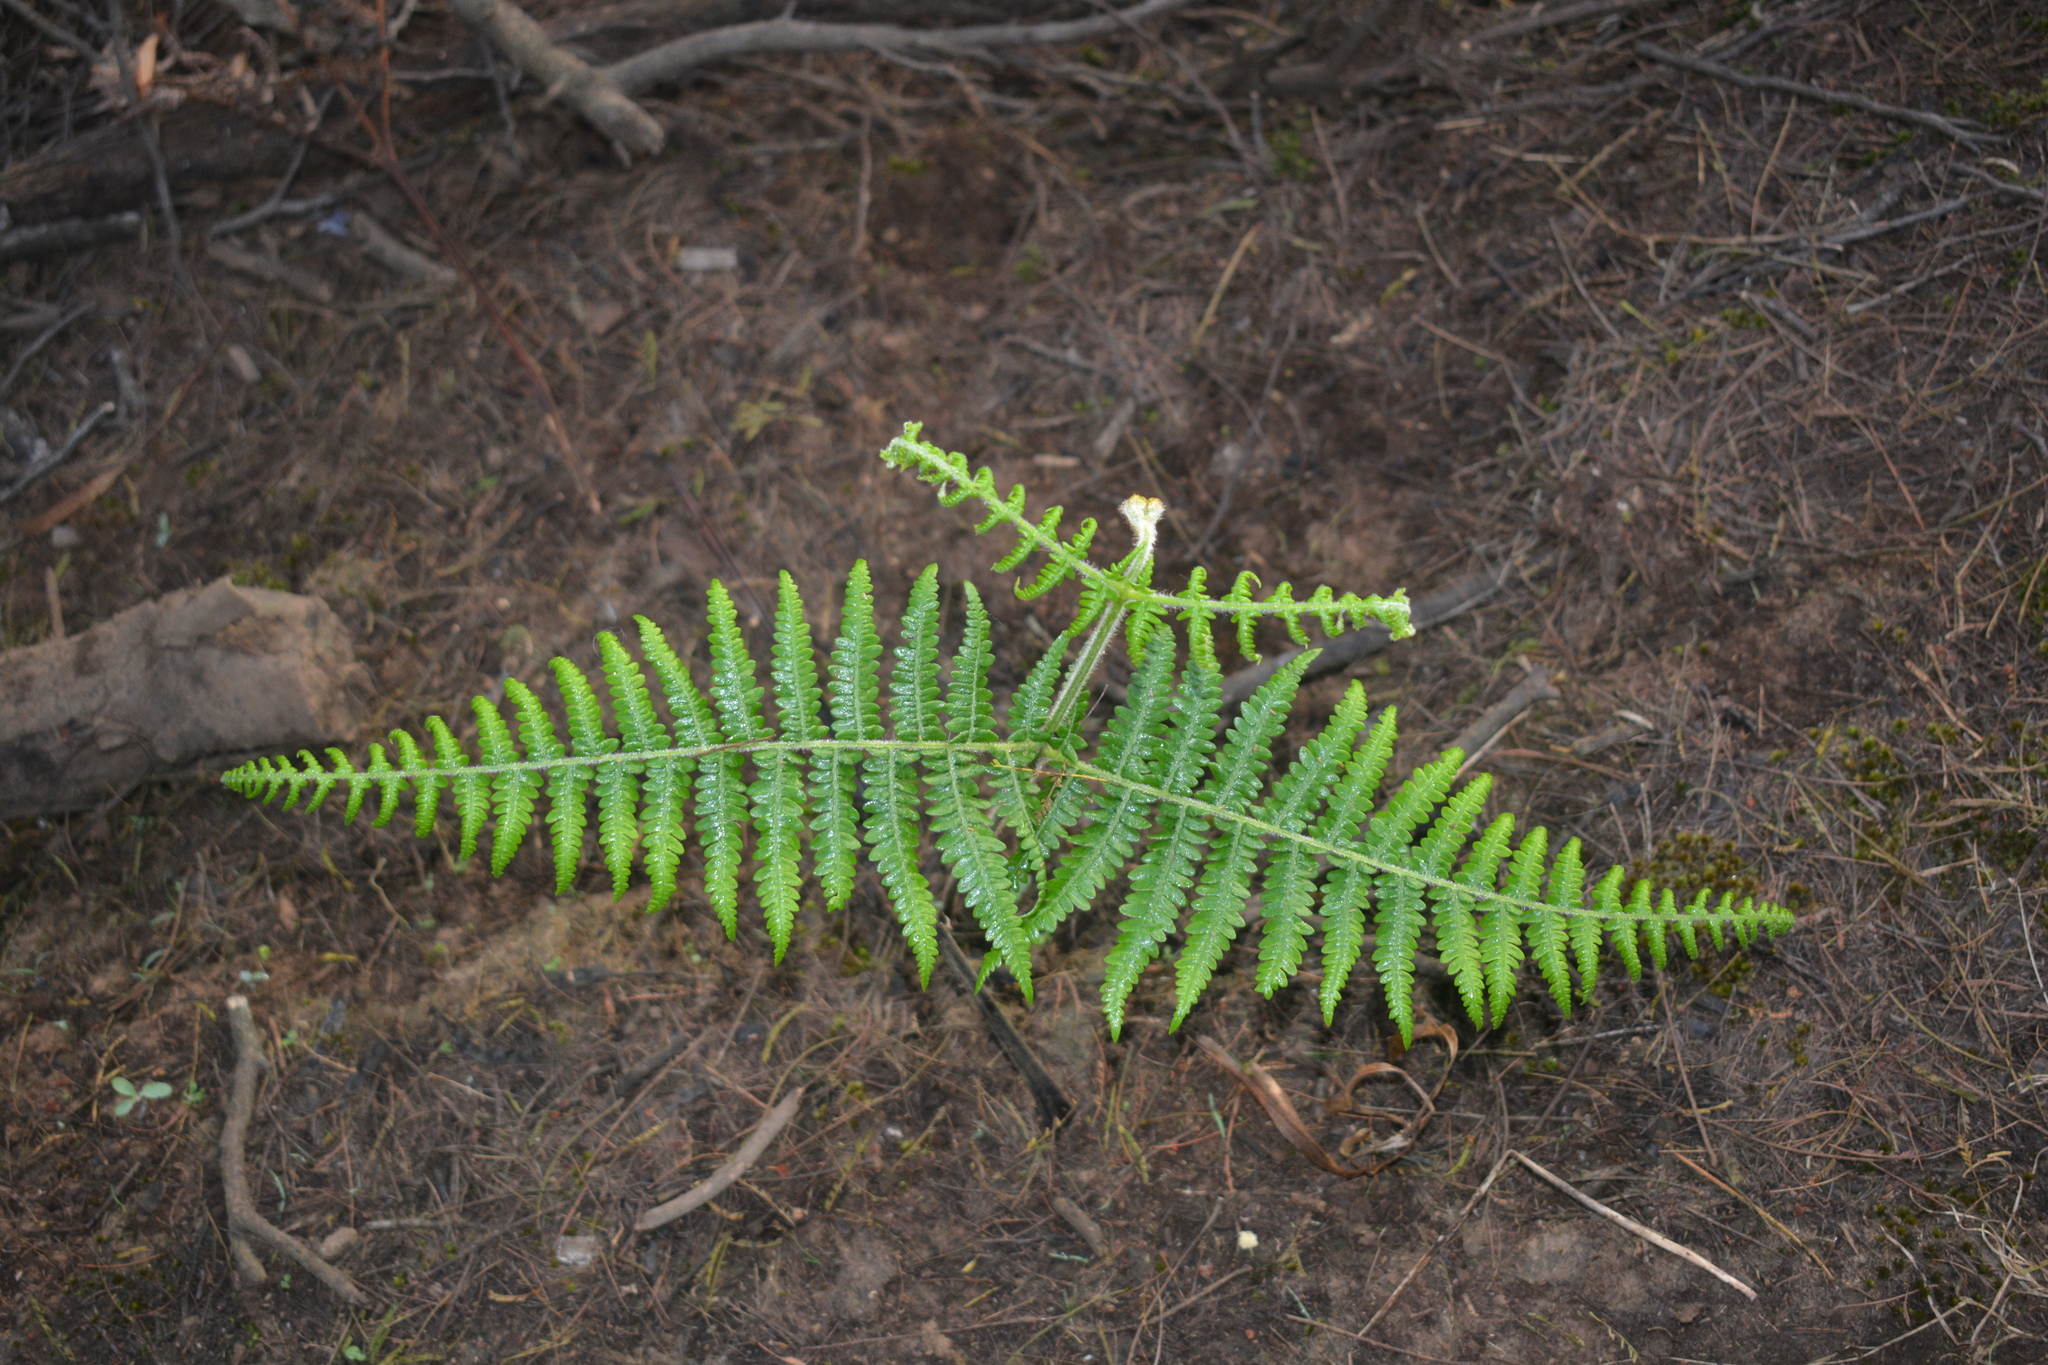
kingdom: Plantae
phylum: Tracheophyta
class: Polypodiopsida
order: Polypodiales
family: Dennstaedtiaceae
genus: Pteridium
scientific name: Pteridium aquilinum
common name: Bracken
